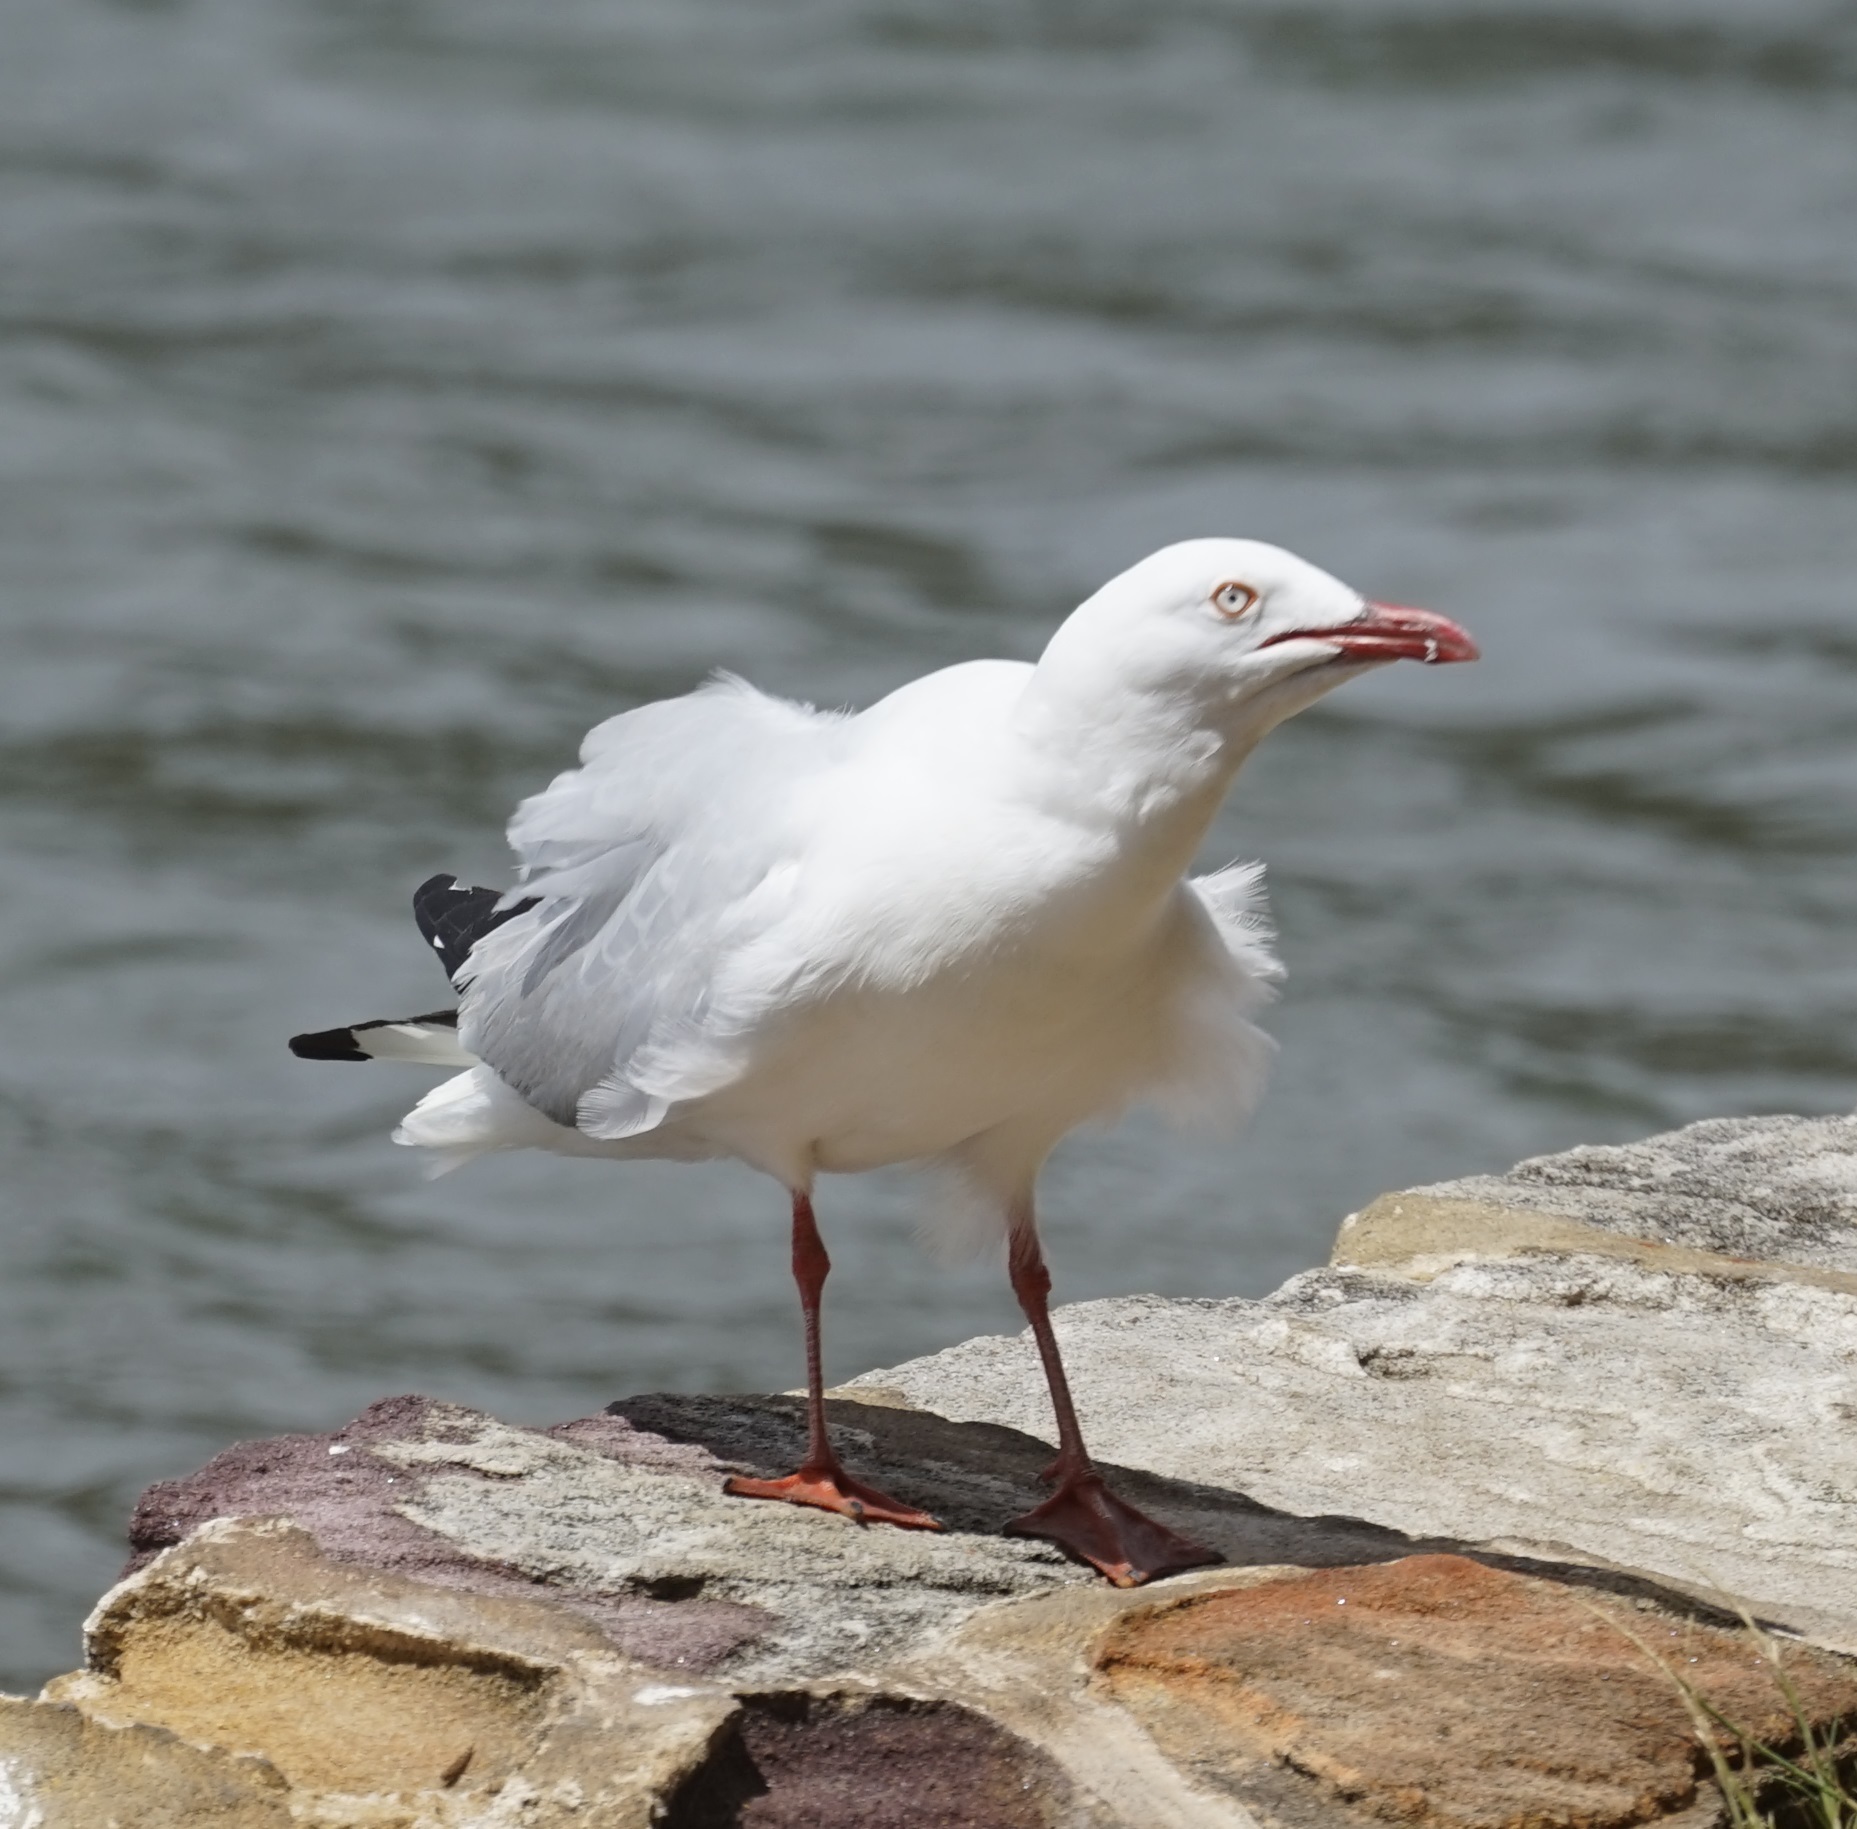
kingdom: Animalia
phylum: Chordata
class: Aves
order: Charadriiformes
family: Laridae
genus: Chroicocephalus
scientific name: Chroicocephalus novaehollandiae
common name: Silver gull
